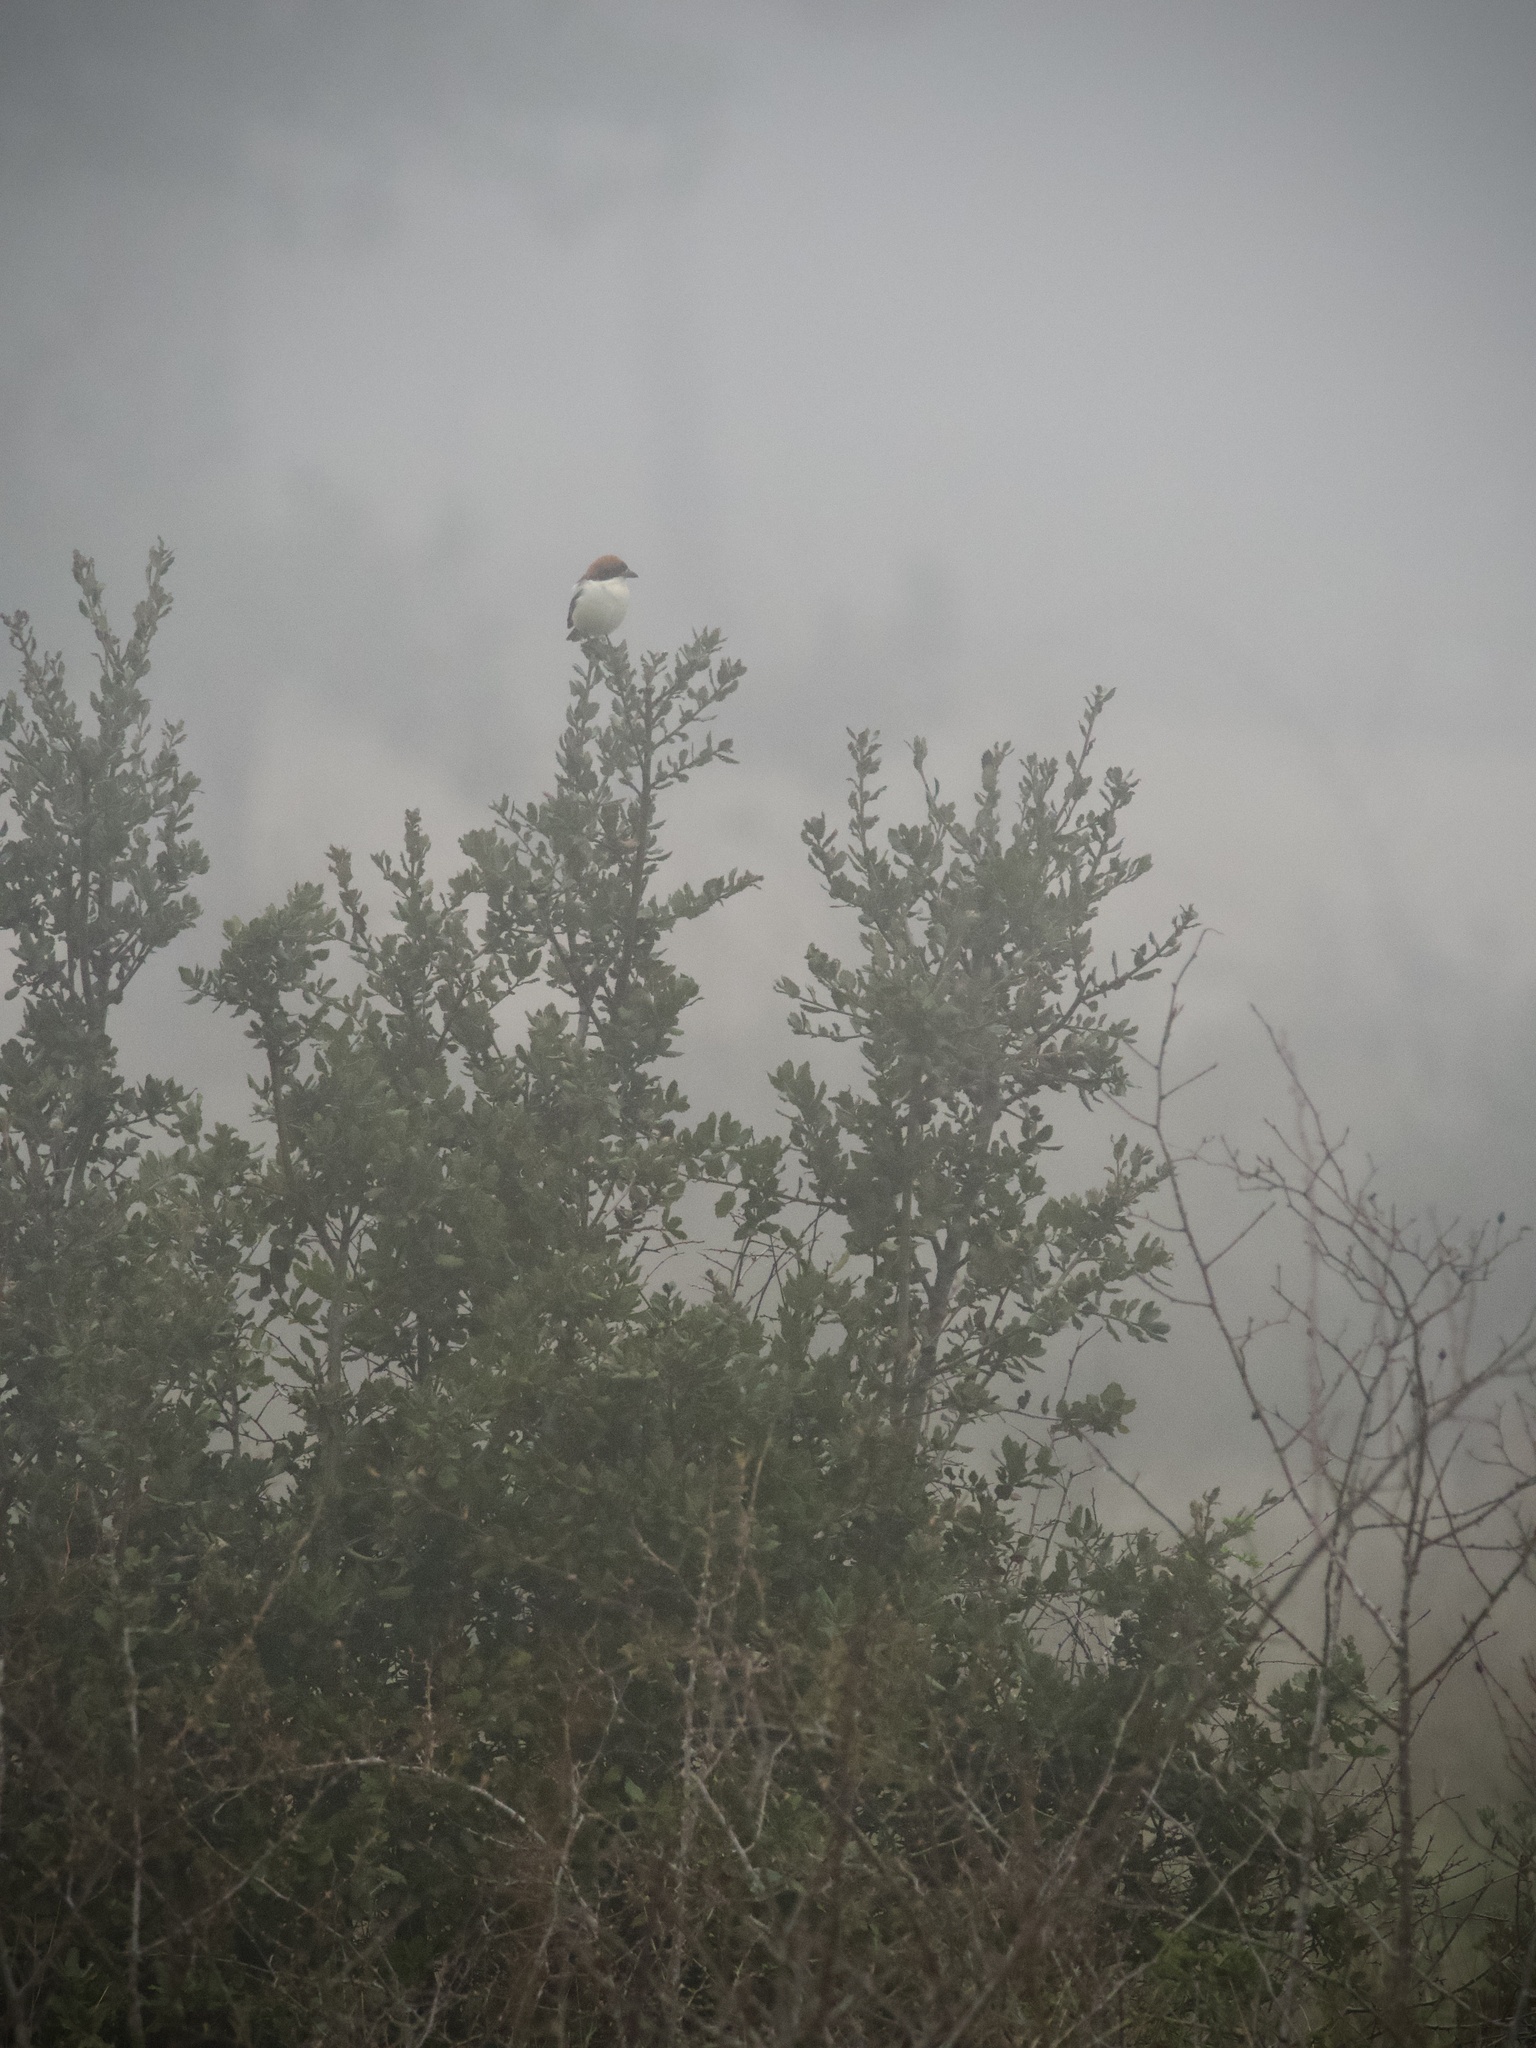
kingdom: Animalia
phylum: Chordata
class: Aves
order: Passeriformes
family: Laniidae
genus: Lanius
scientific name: Lanius senator
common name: Woodchat shrike
